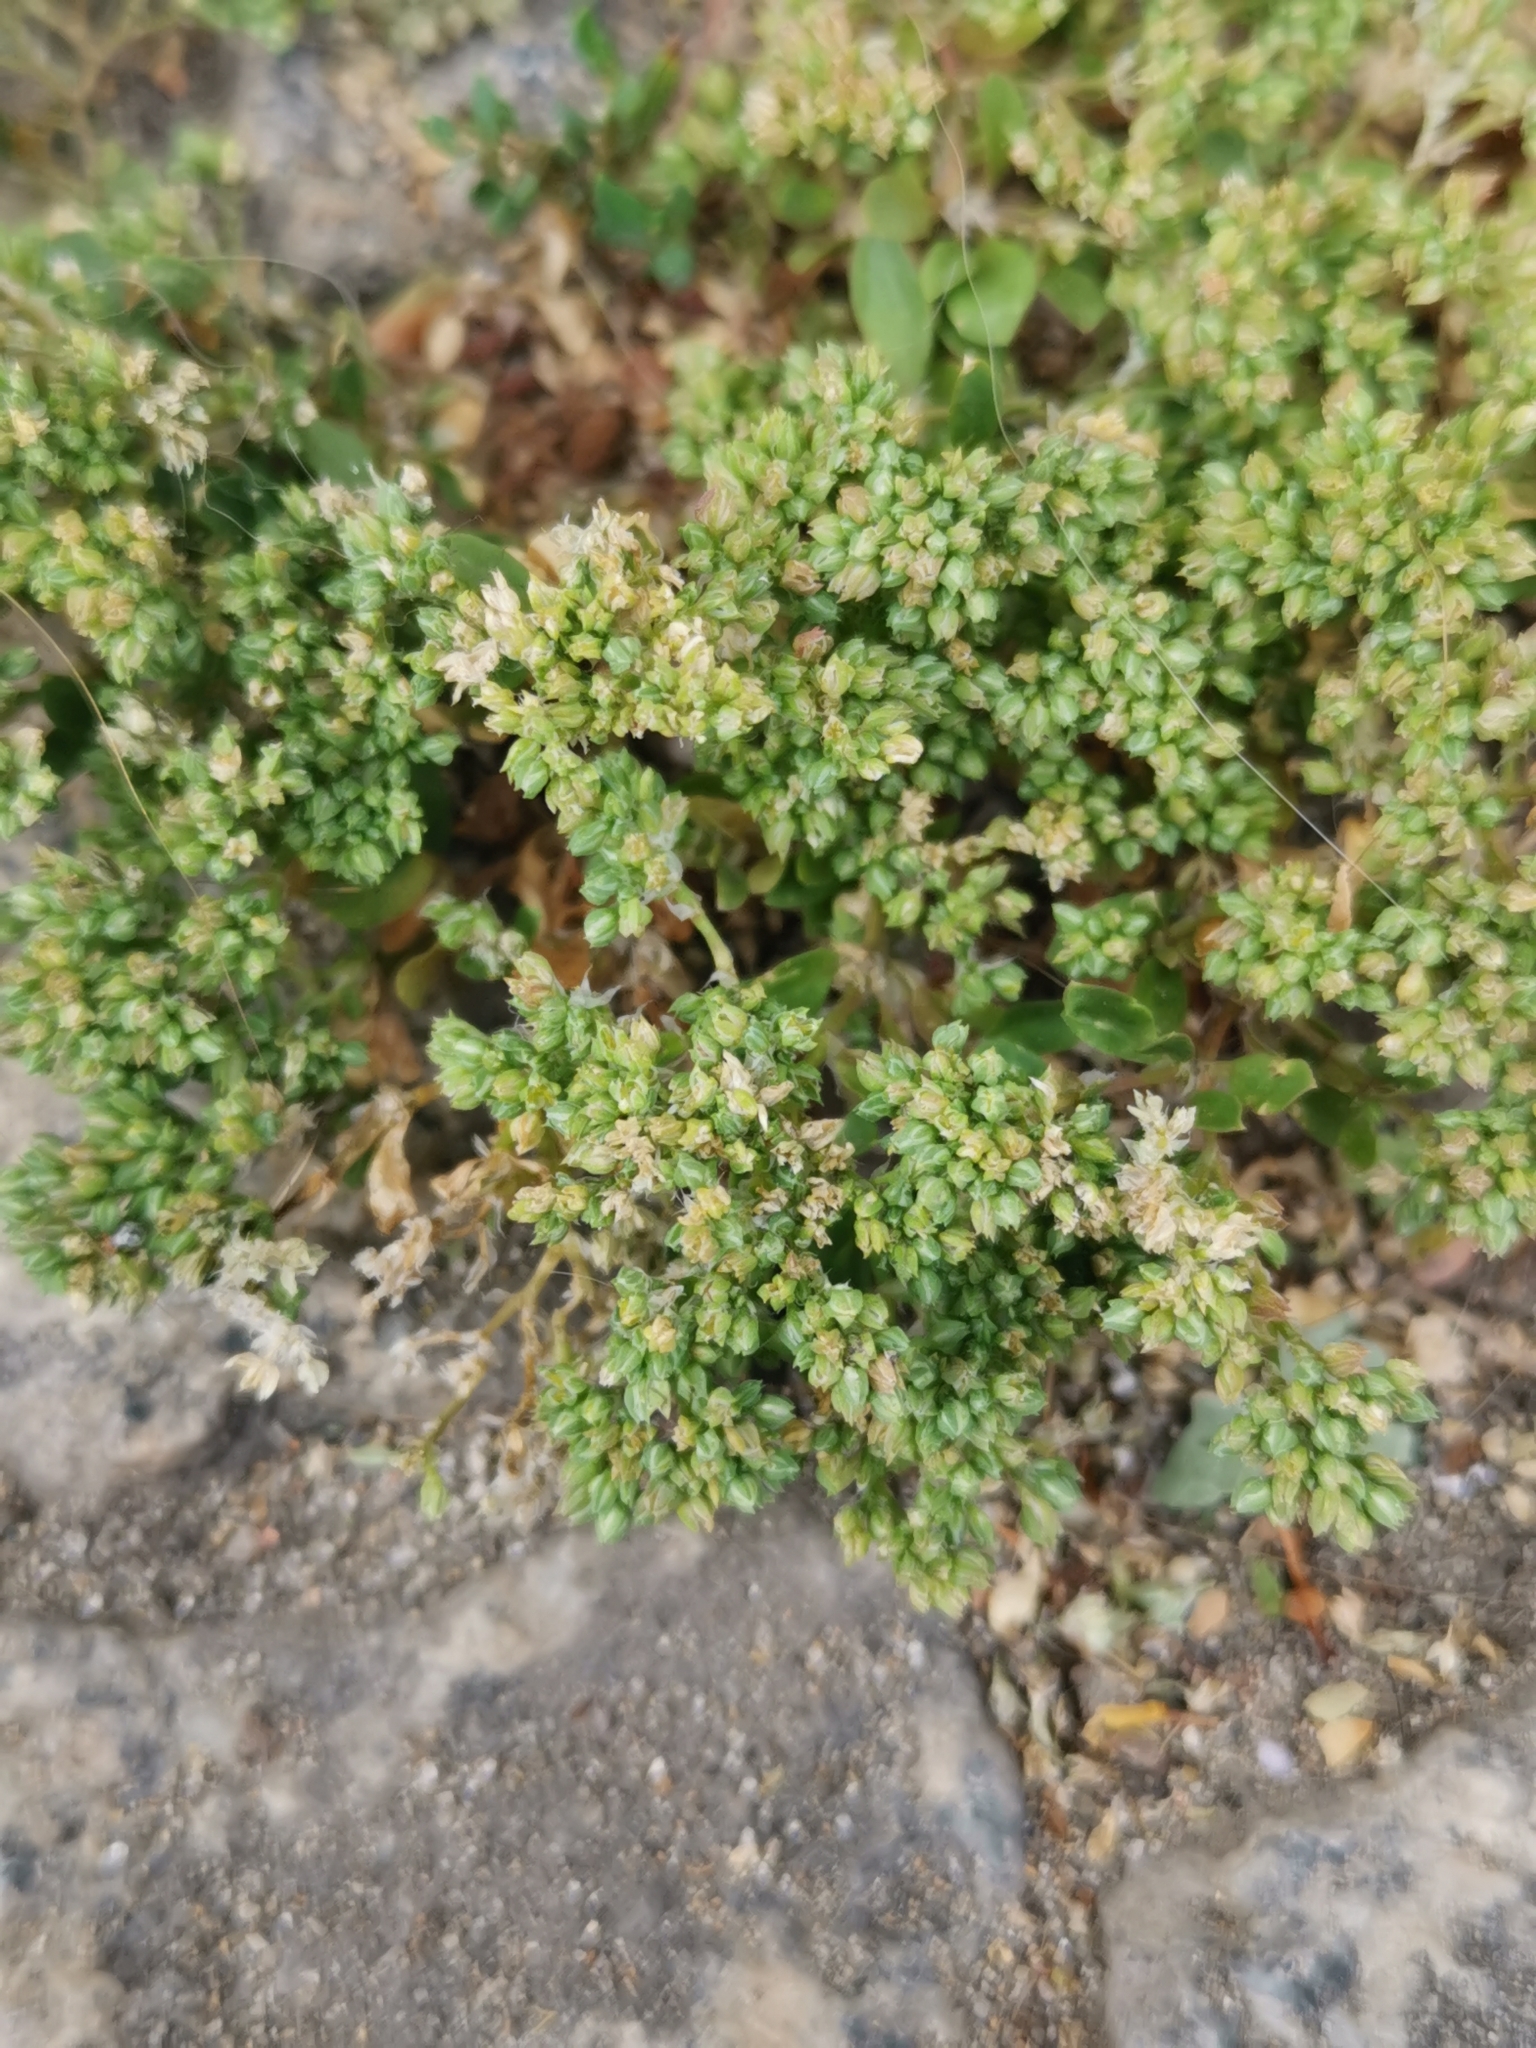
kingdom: Plantae
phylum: Tracheophyta
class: Magnoliopsida
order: Caryophyllales
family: Caryophyllaceae
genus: Polycarpon
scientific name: Polycarpon tetraphyllum
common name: Four-leaved all-seed
